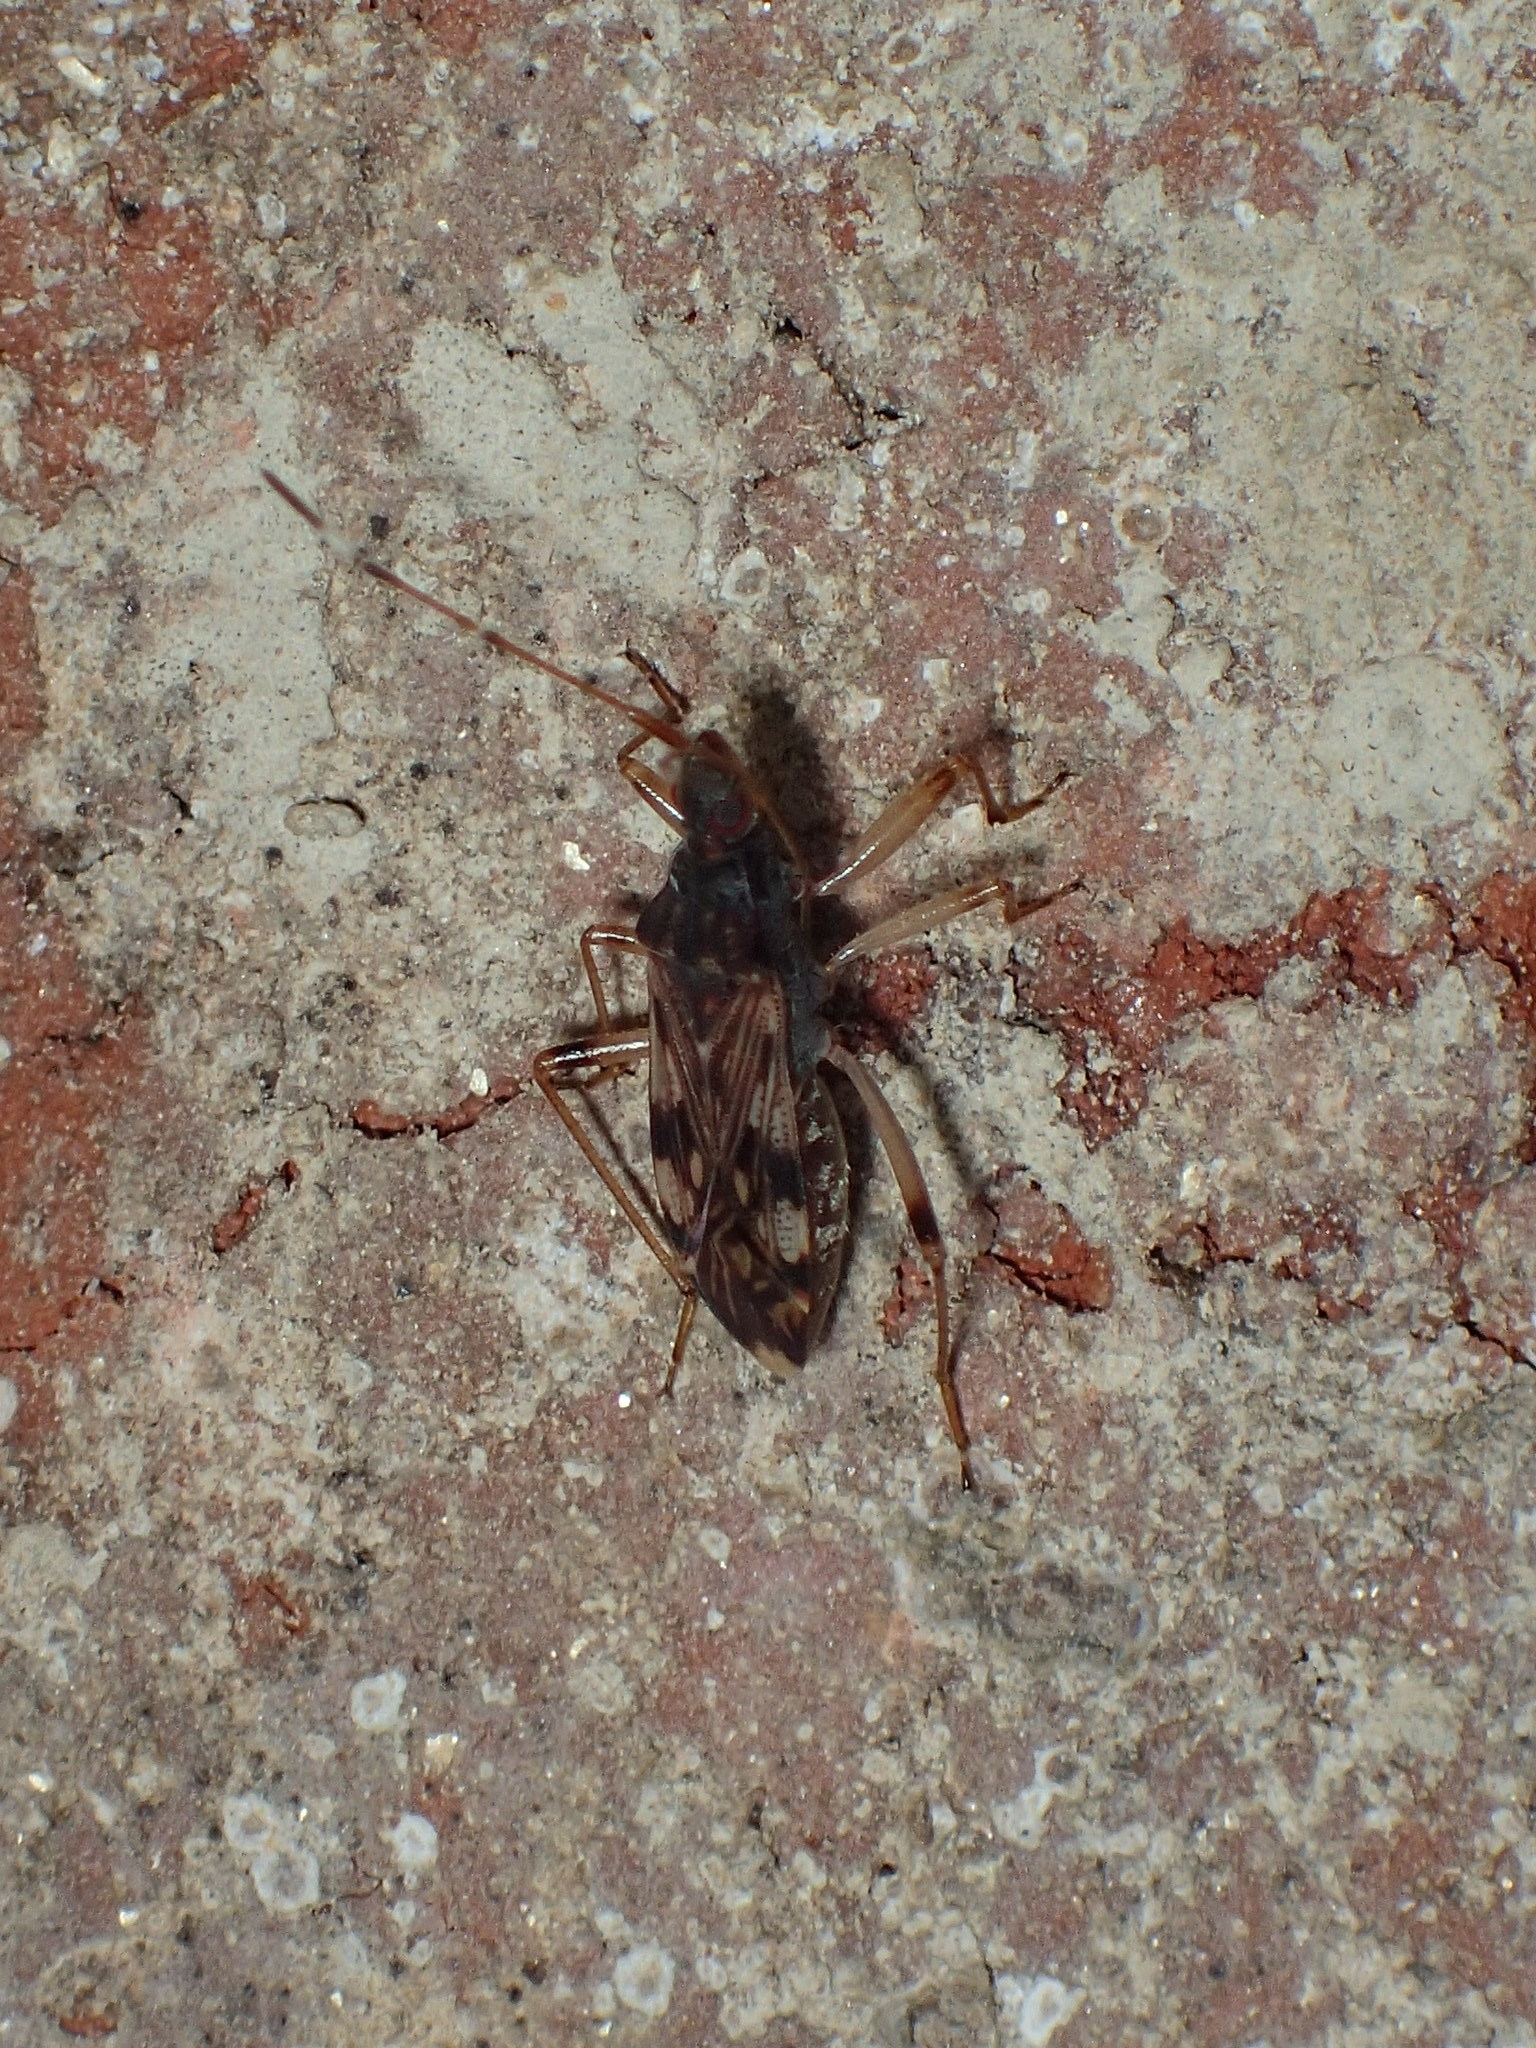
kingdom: Animalia
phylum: Arthropoda
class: Insecta
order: Hemiptera
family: Rhyparochromidae
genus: Ozophora
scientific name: Ozophora picturata
